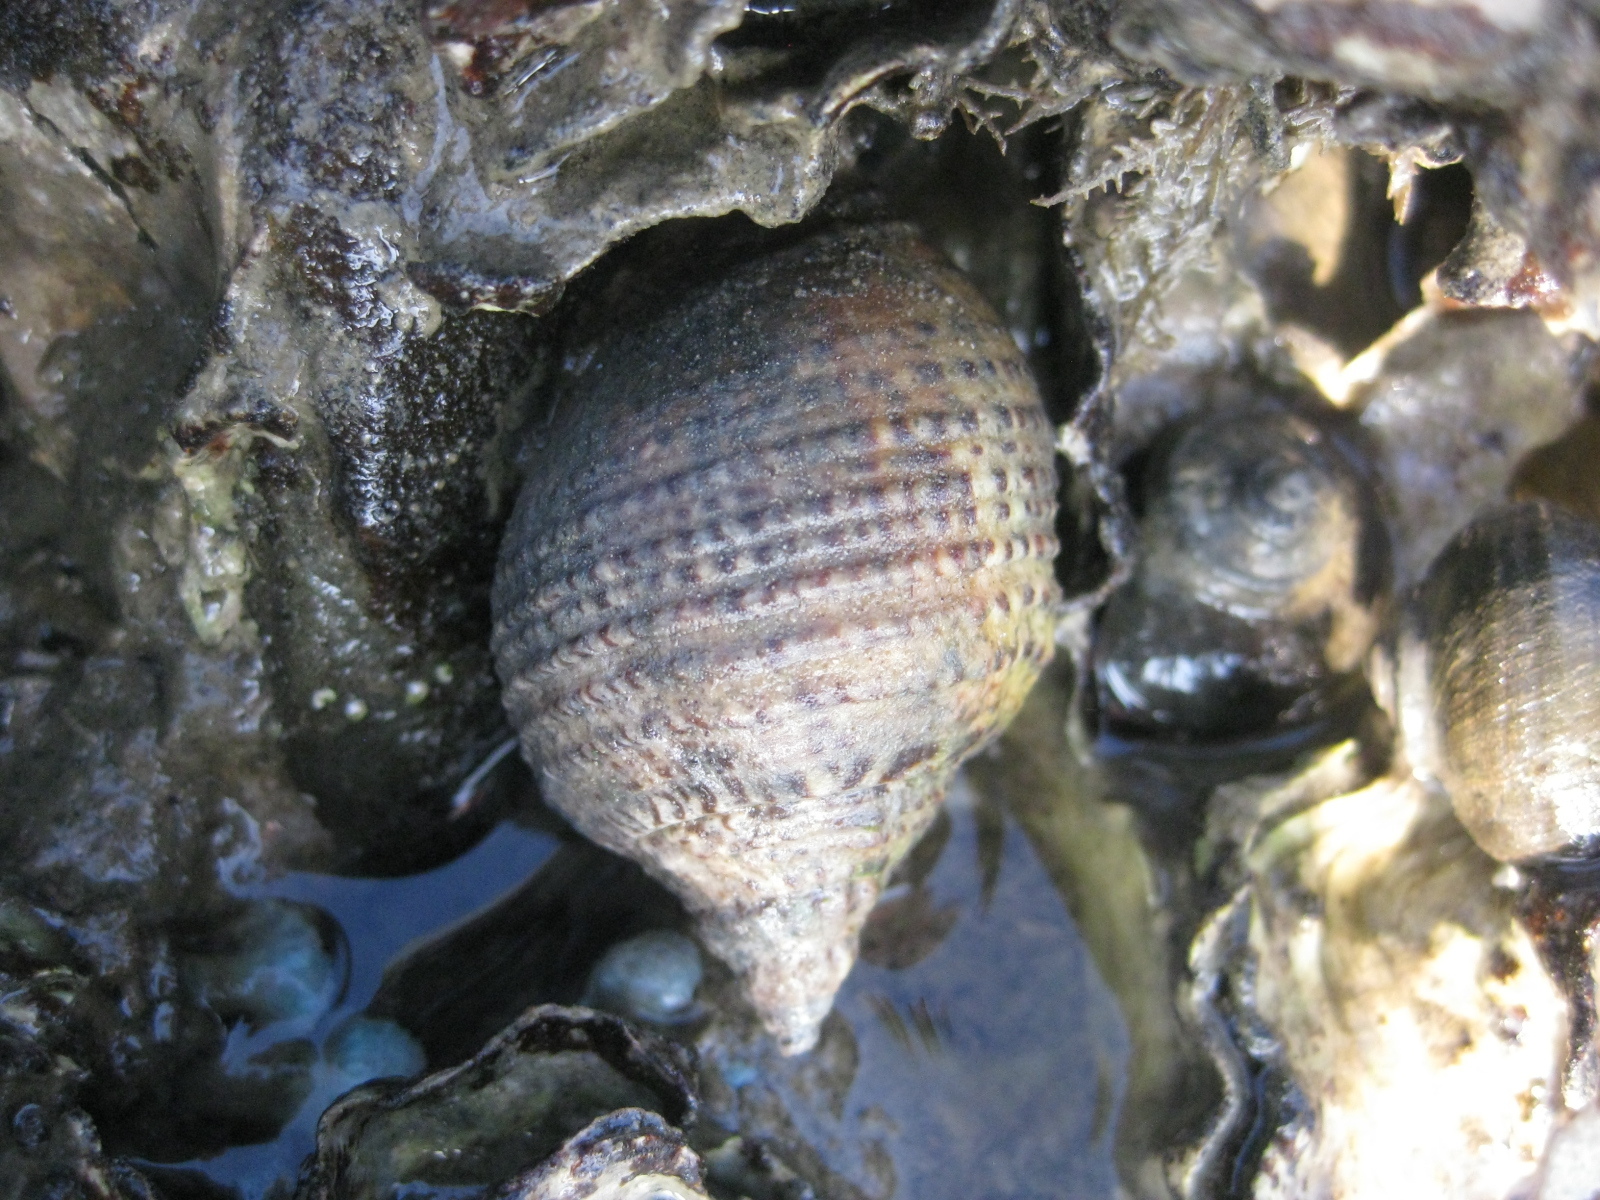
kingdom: Animalia
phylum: Mollusca
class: Gastropoda
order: Neogastropoda
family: Cominellidae
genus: Cominella
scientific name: Cominella adspersa
